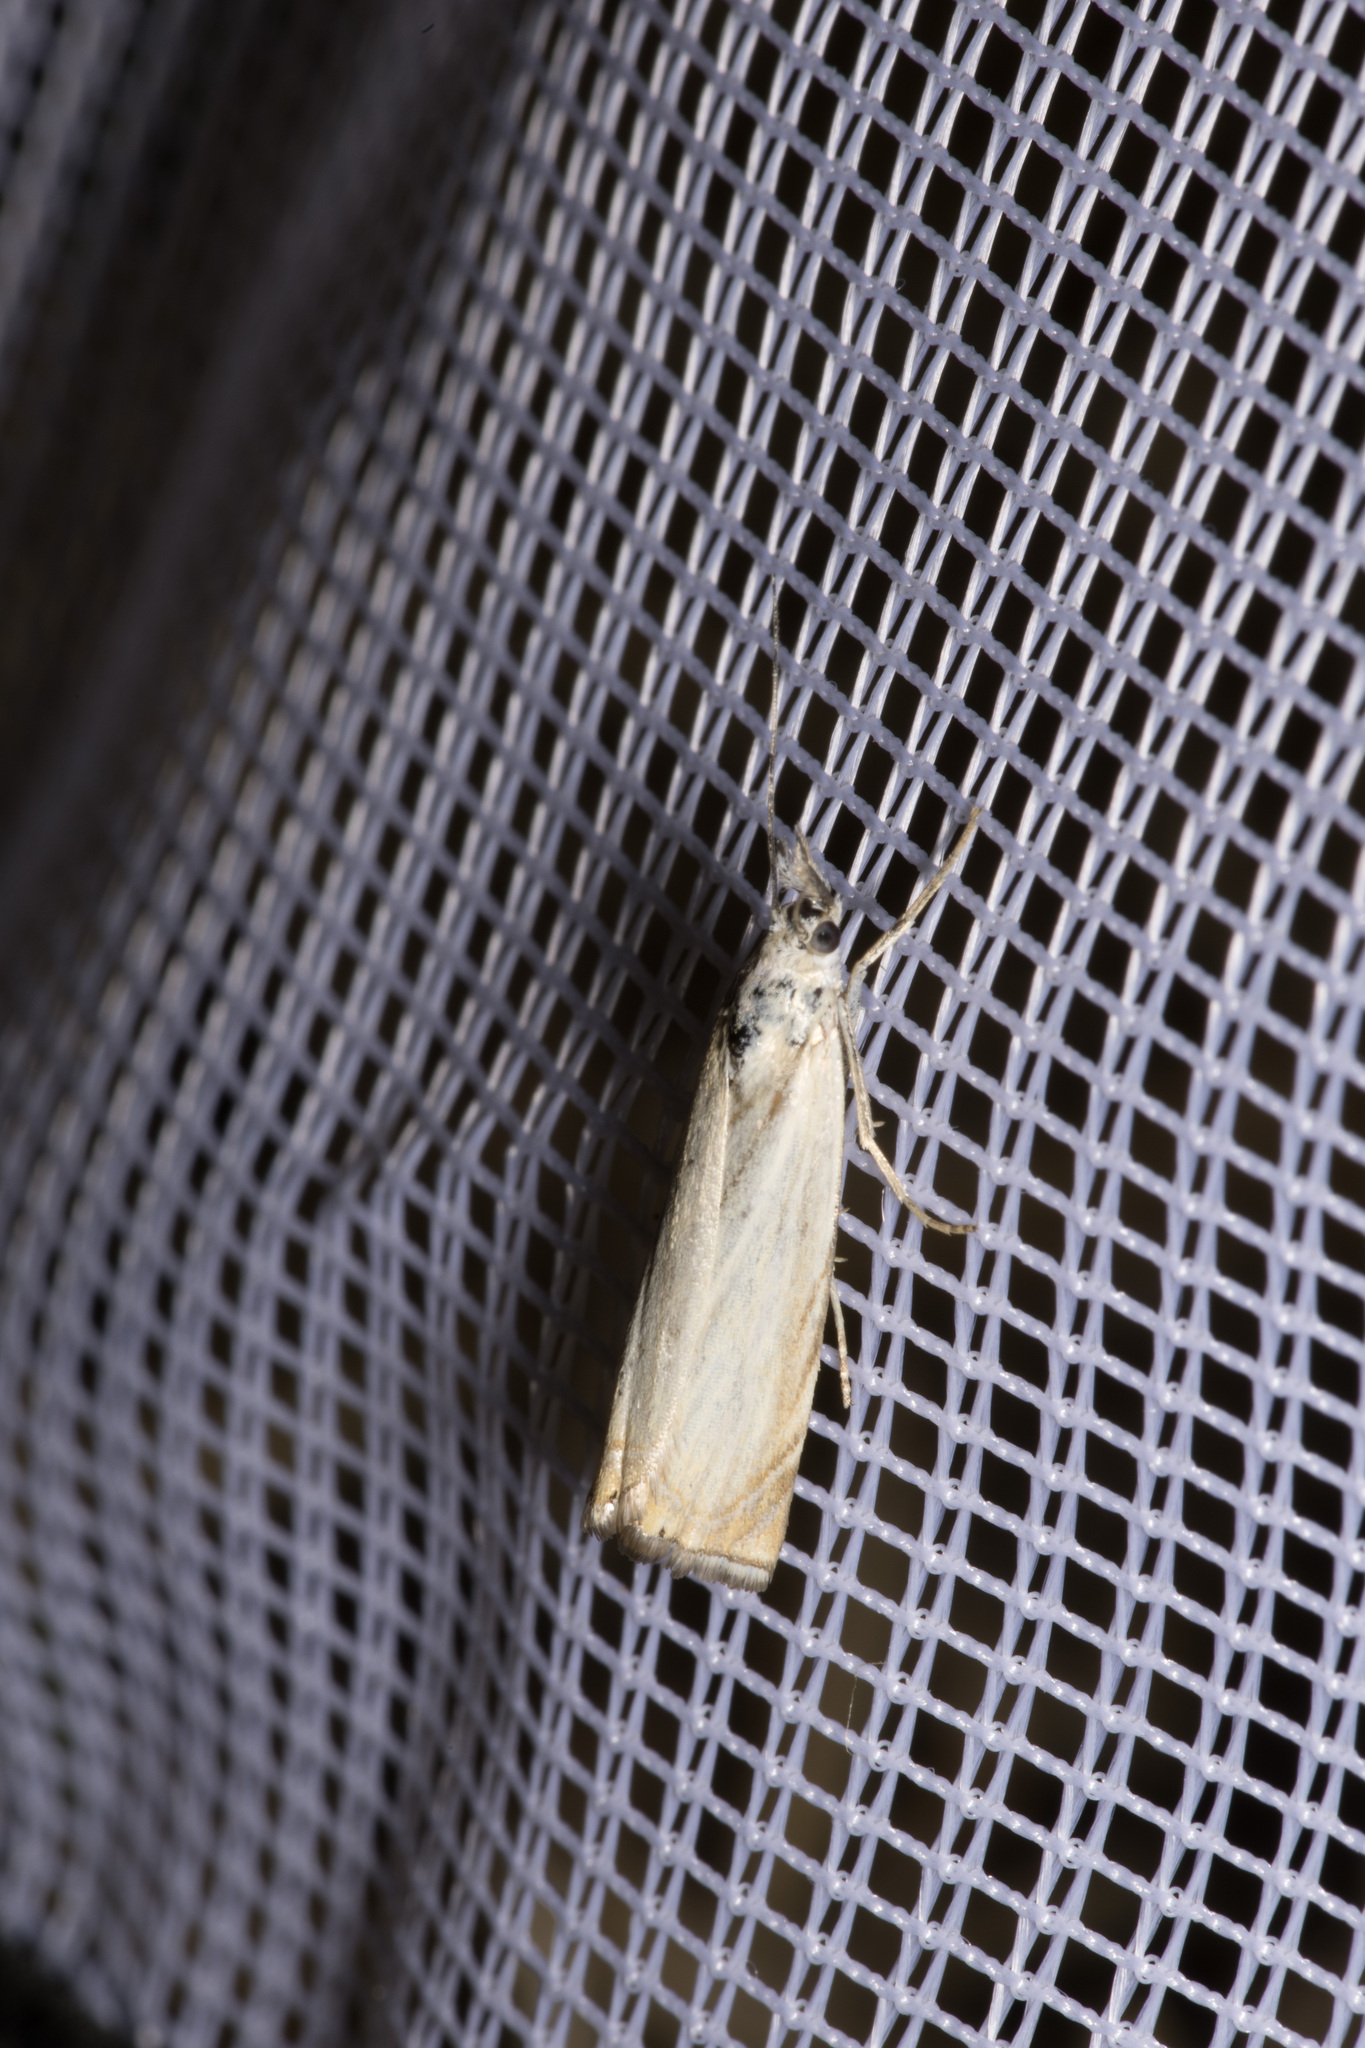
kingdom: Animalia
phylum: Arthropoda
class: Insecta
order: Lepidoptera
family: Crambidae
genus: Chrysoteuchia
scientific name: Chrysoteuchia culmella
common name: Garden grass-veneer
